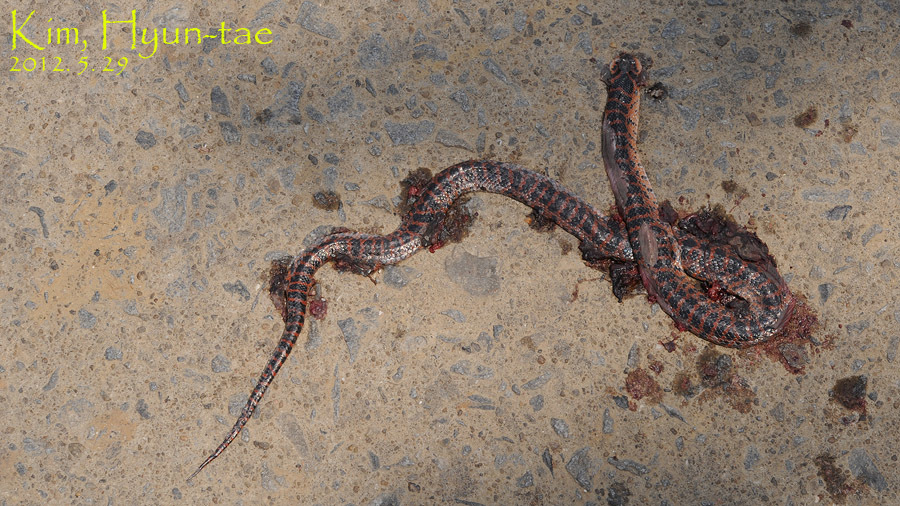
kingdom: Animalia
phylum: Chordata
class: Squamata
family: Colubridae
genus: Lycodon
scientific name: Lycodon rufozonatus
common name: Red-banded snake
